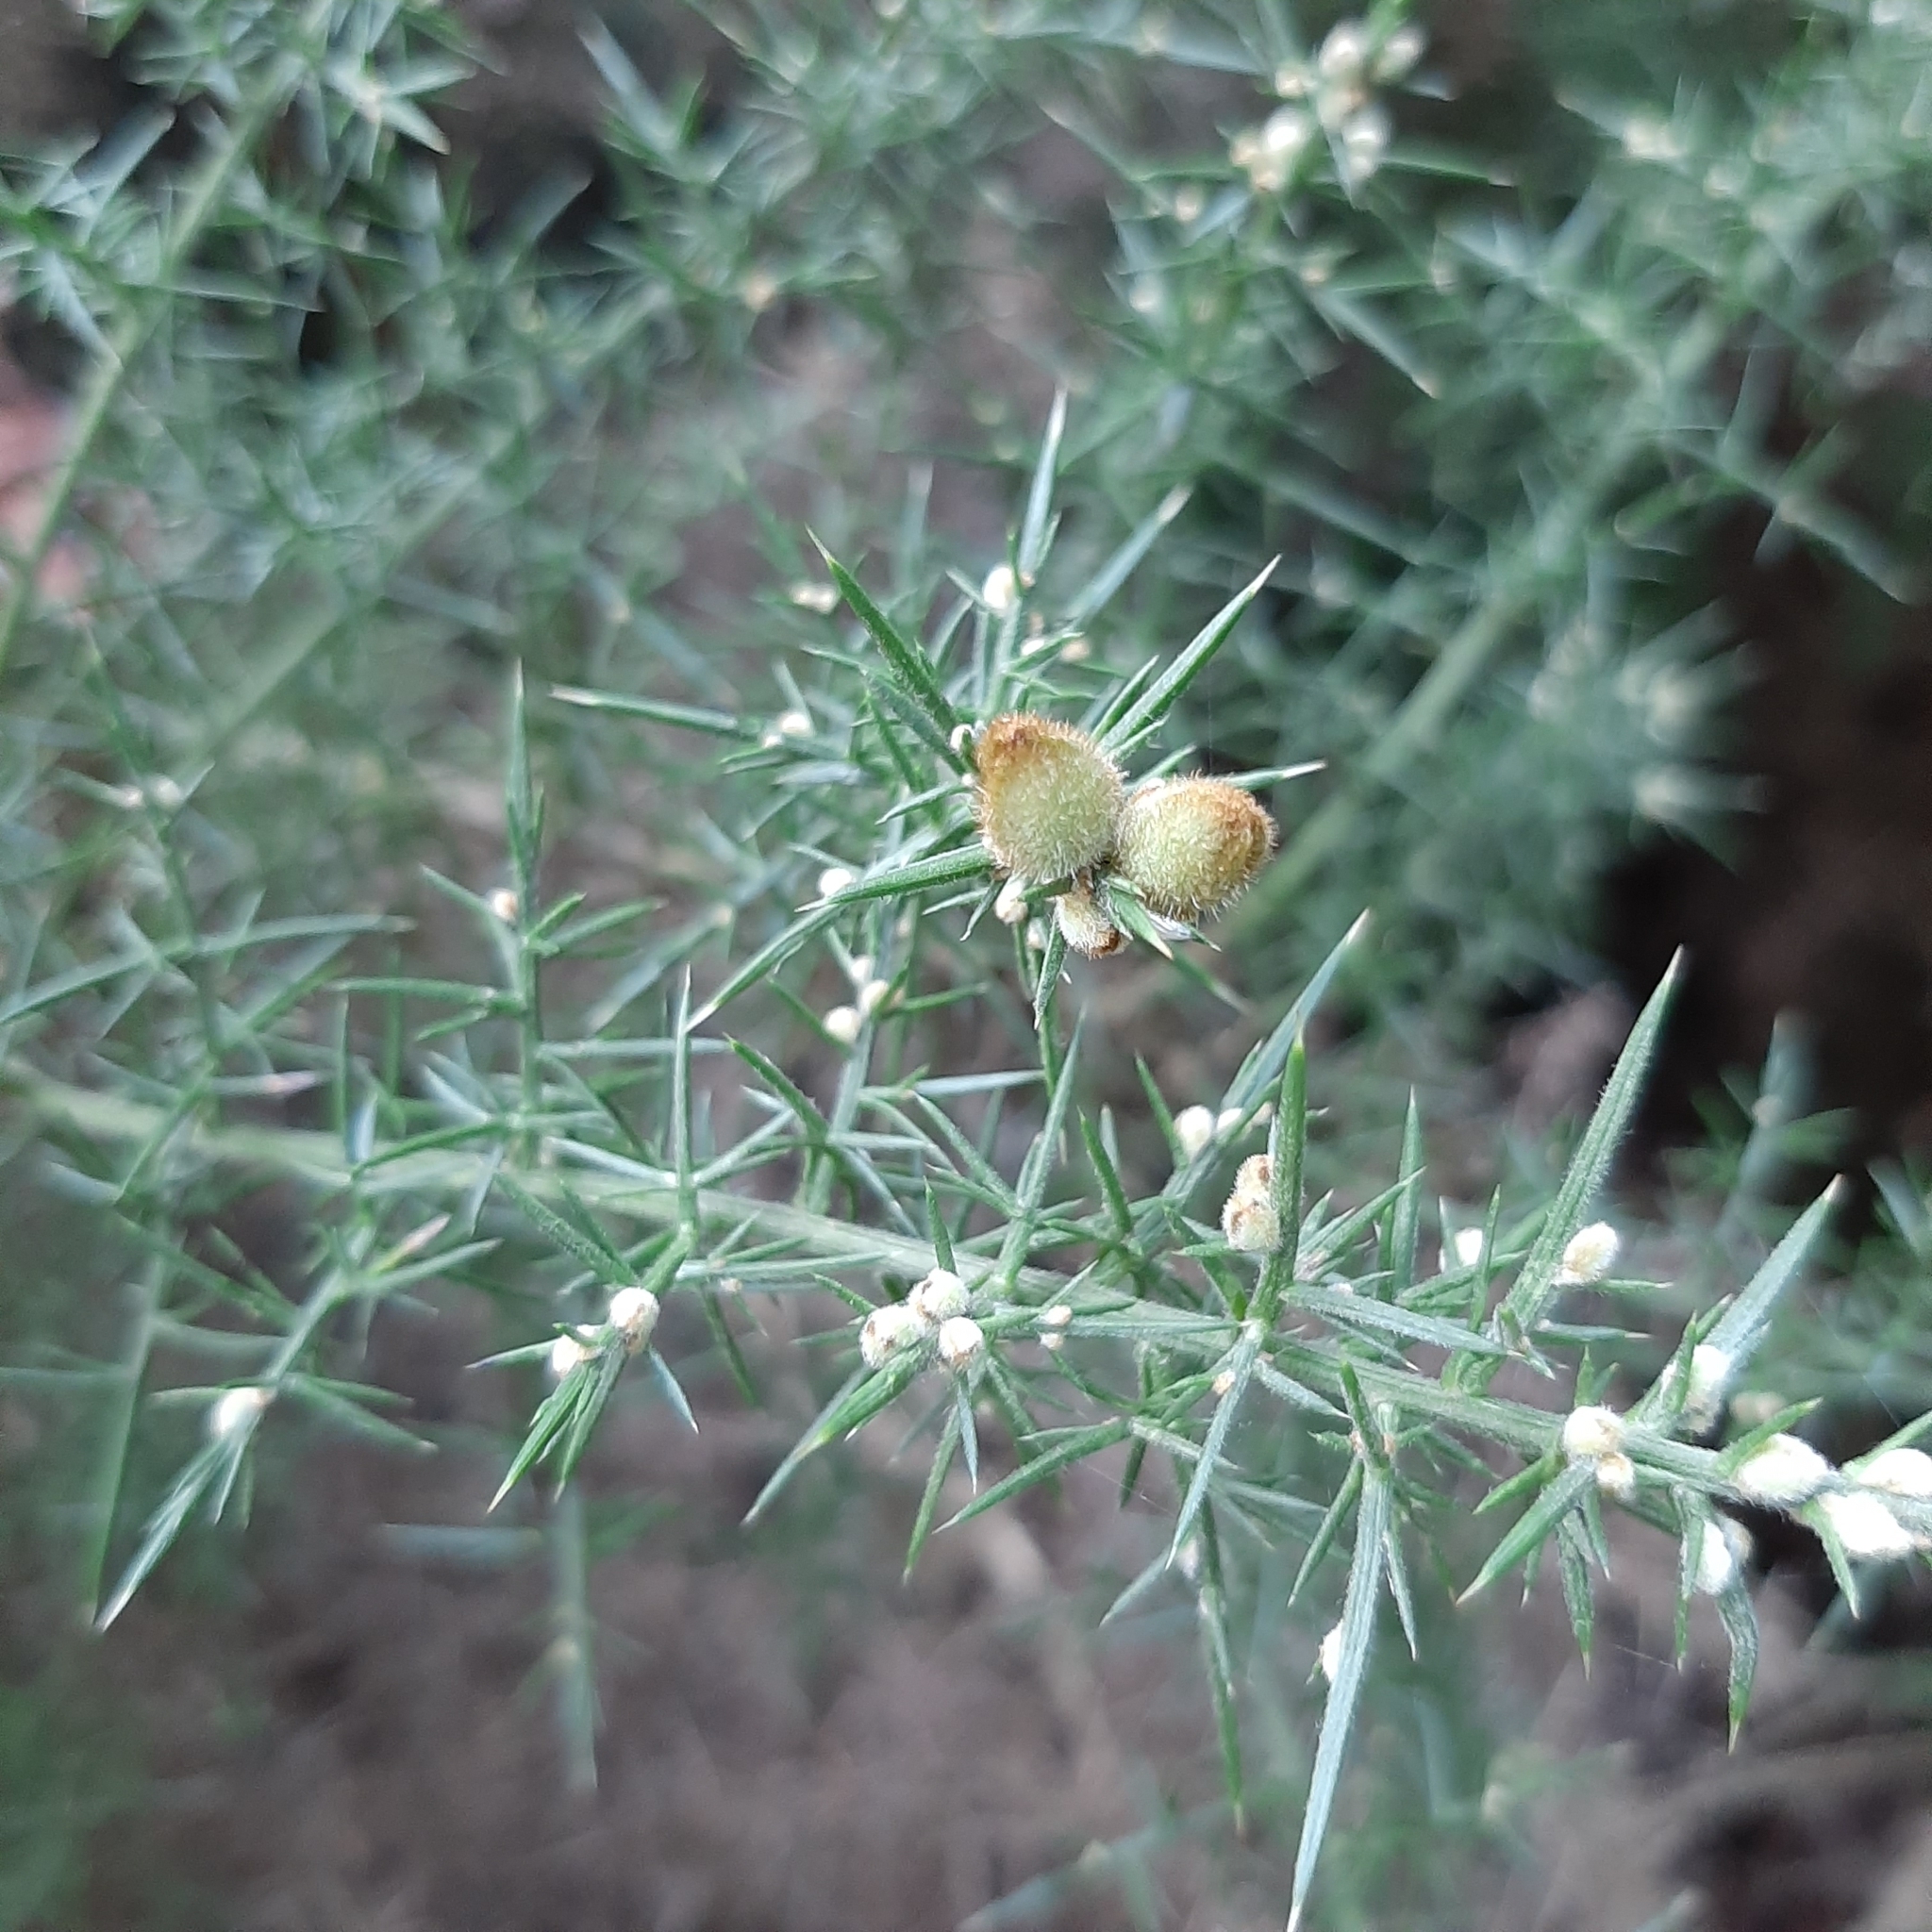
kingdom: Plantae
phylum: Tracheophyta
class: Magnoliopsida
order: Fabales
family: Fabaceae
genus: Ulex
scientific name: Ulex europaeus
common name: Common gorse
